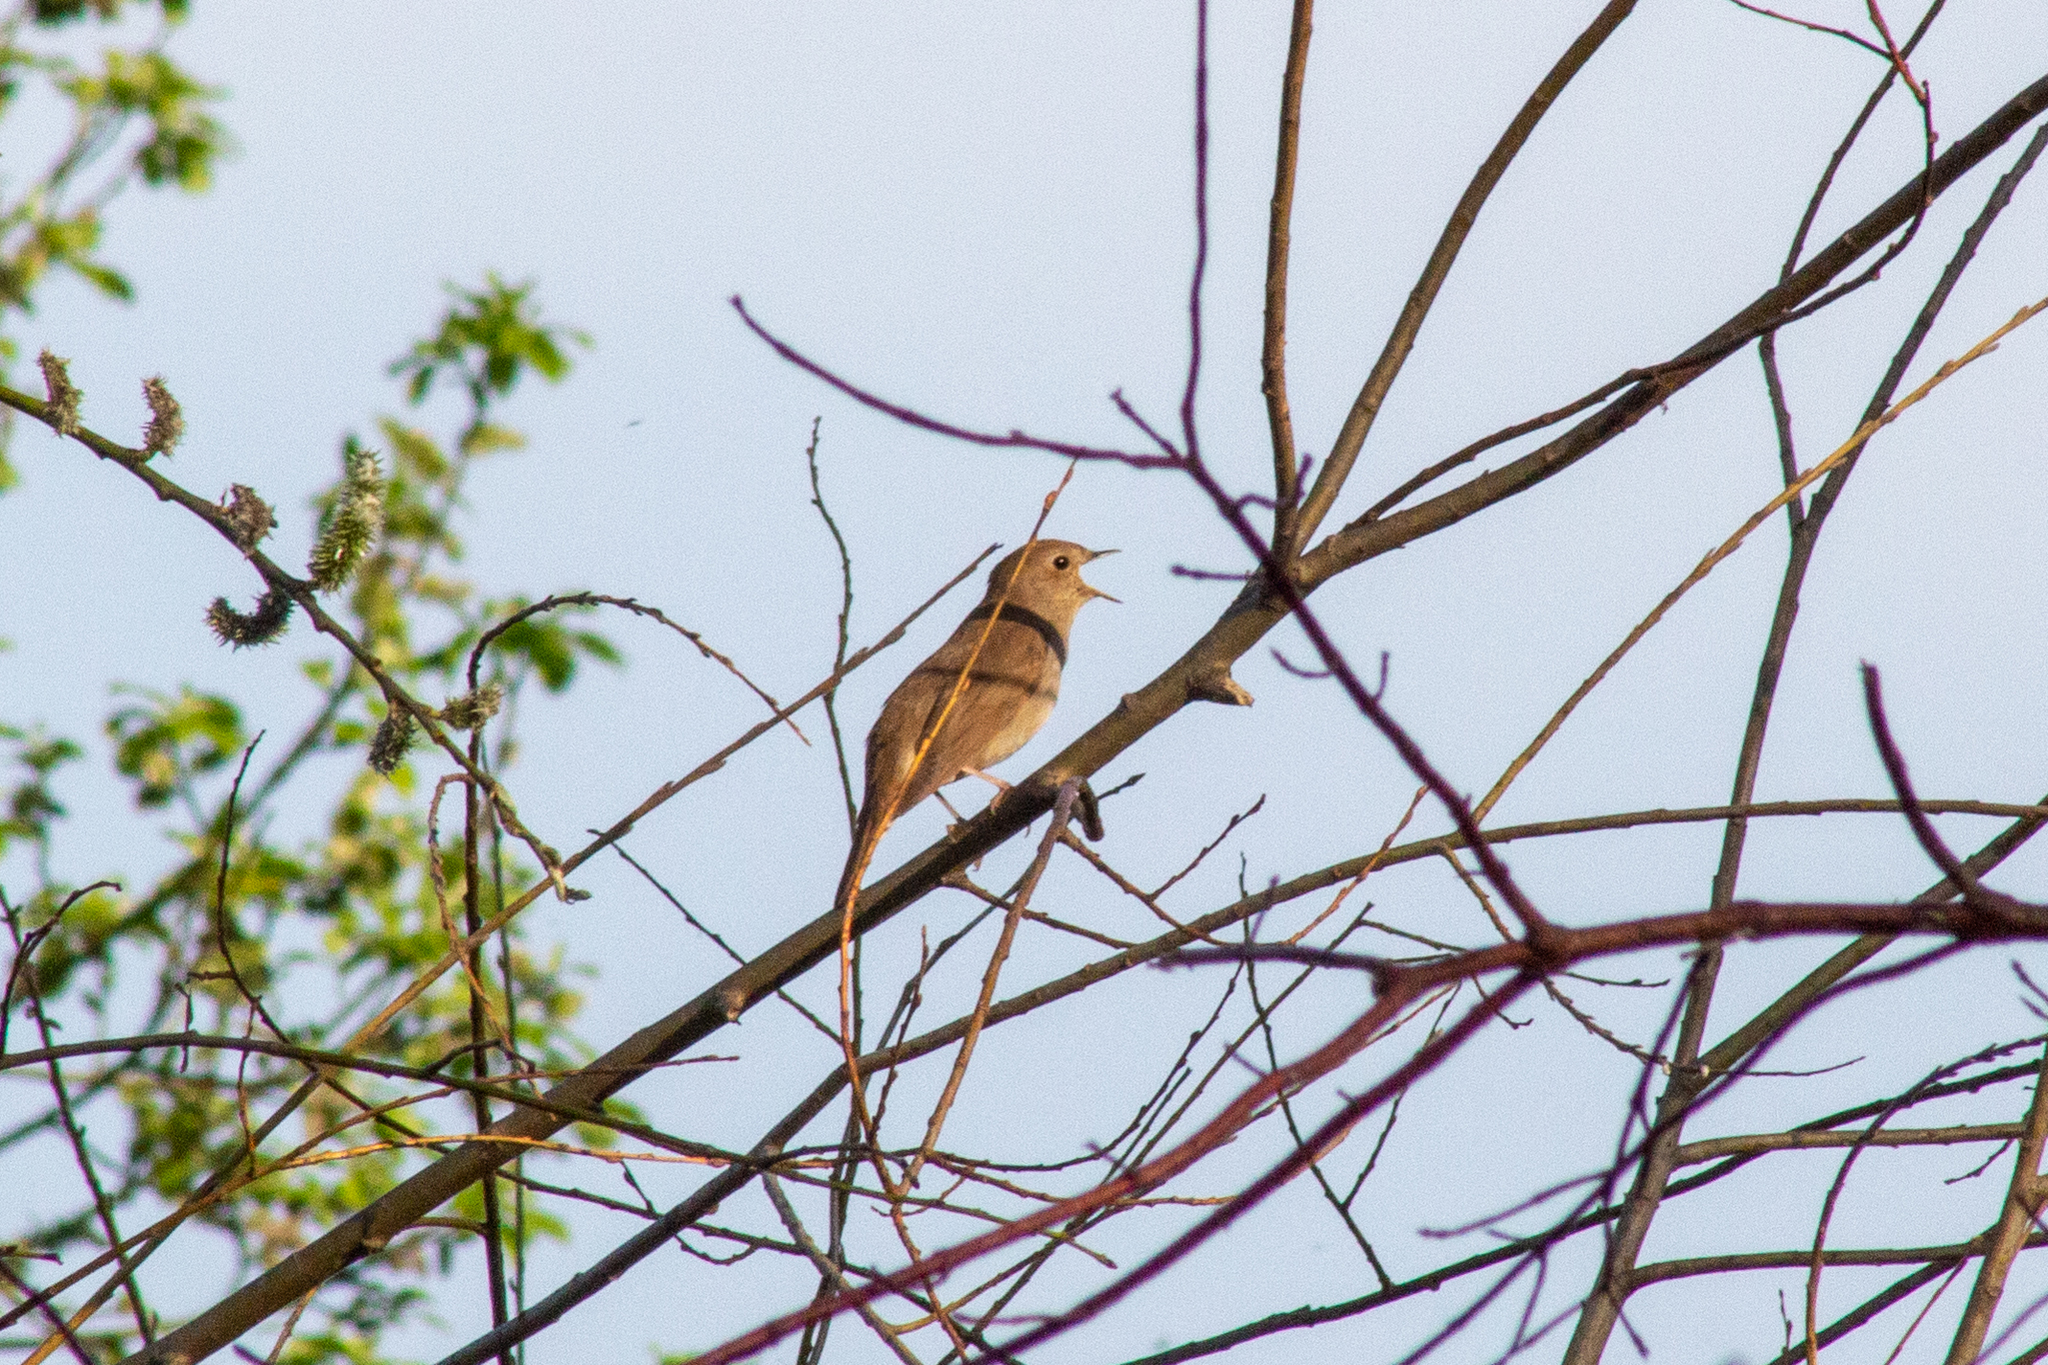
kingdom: Animalia
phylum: Chordata
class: Aves
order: Passeriformes
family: Muscicapidae
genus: Luscinia
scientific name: Luscinia luscinia
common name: Thrush nightingale
